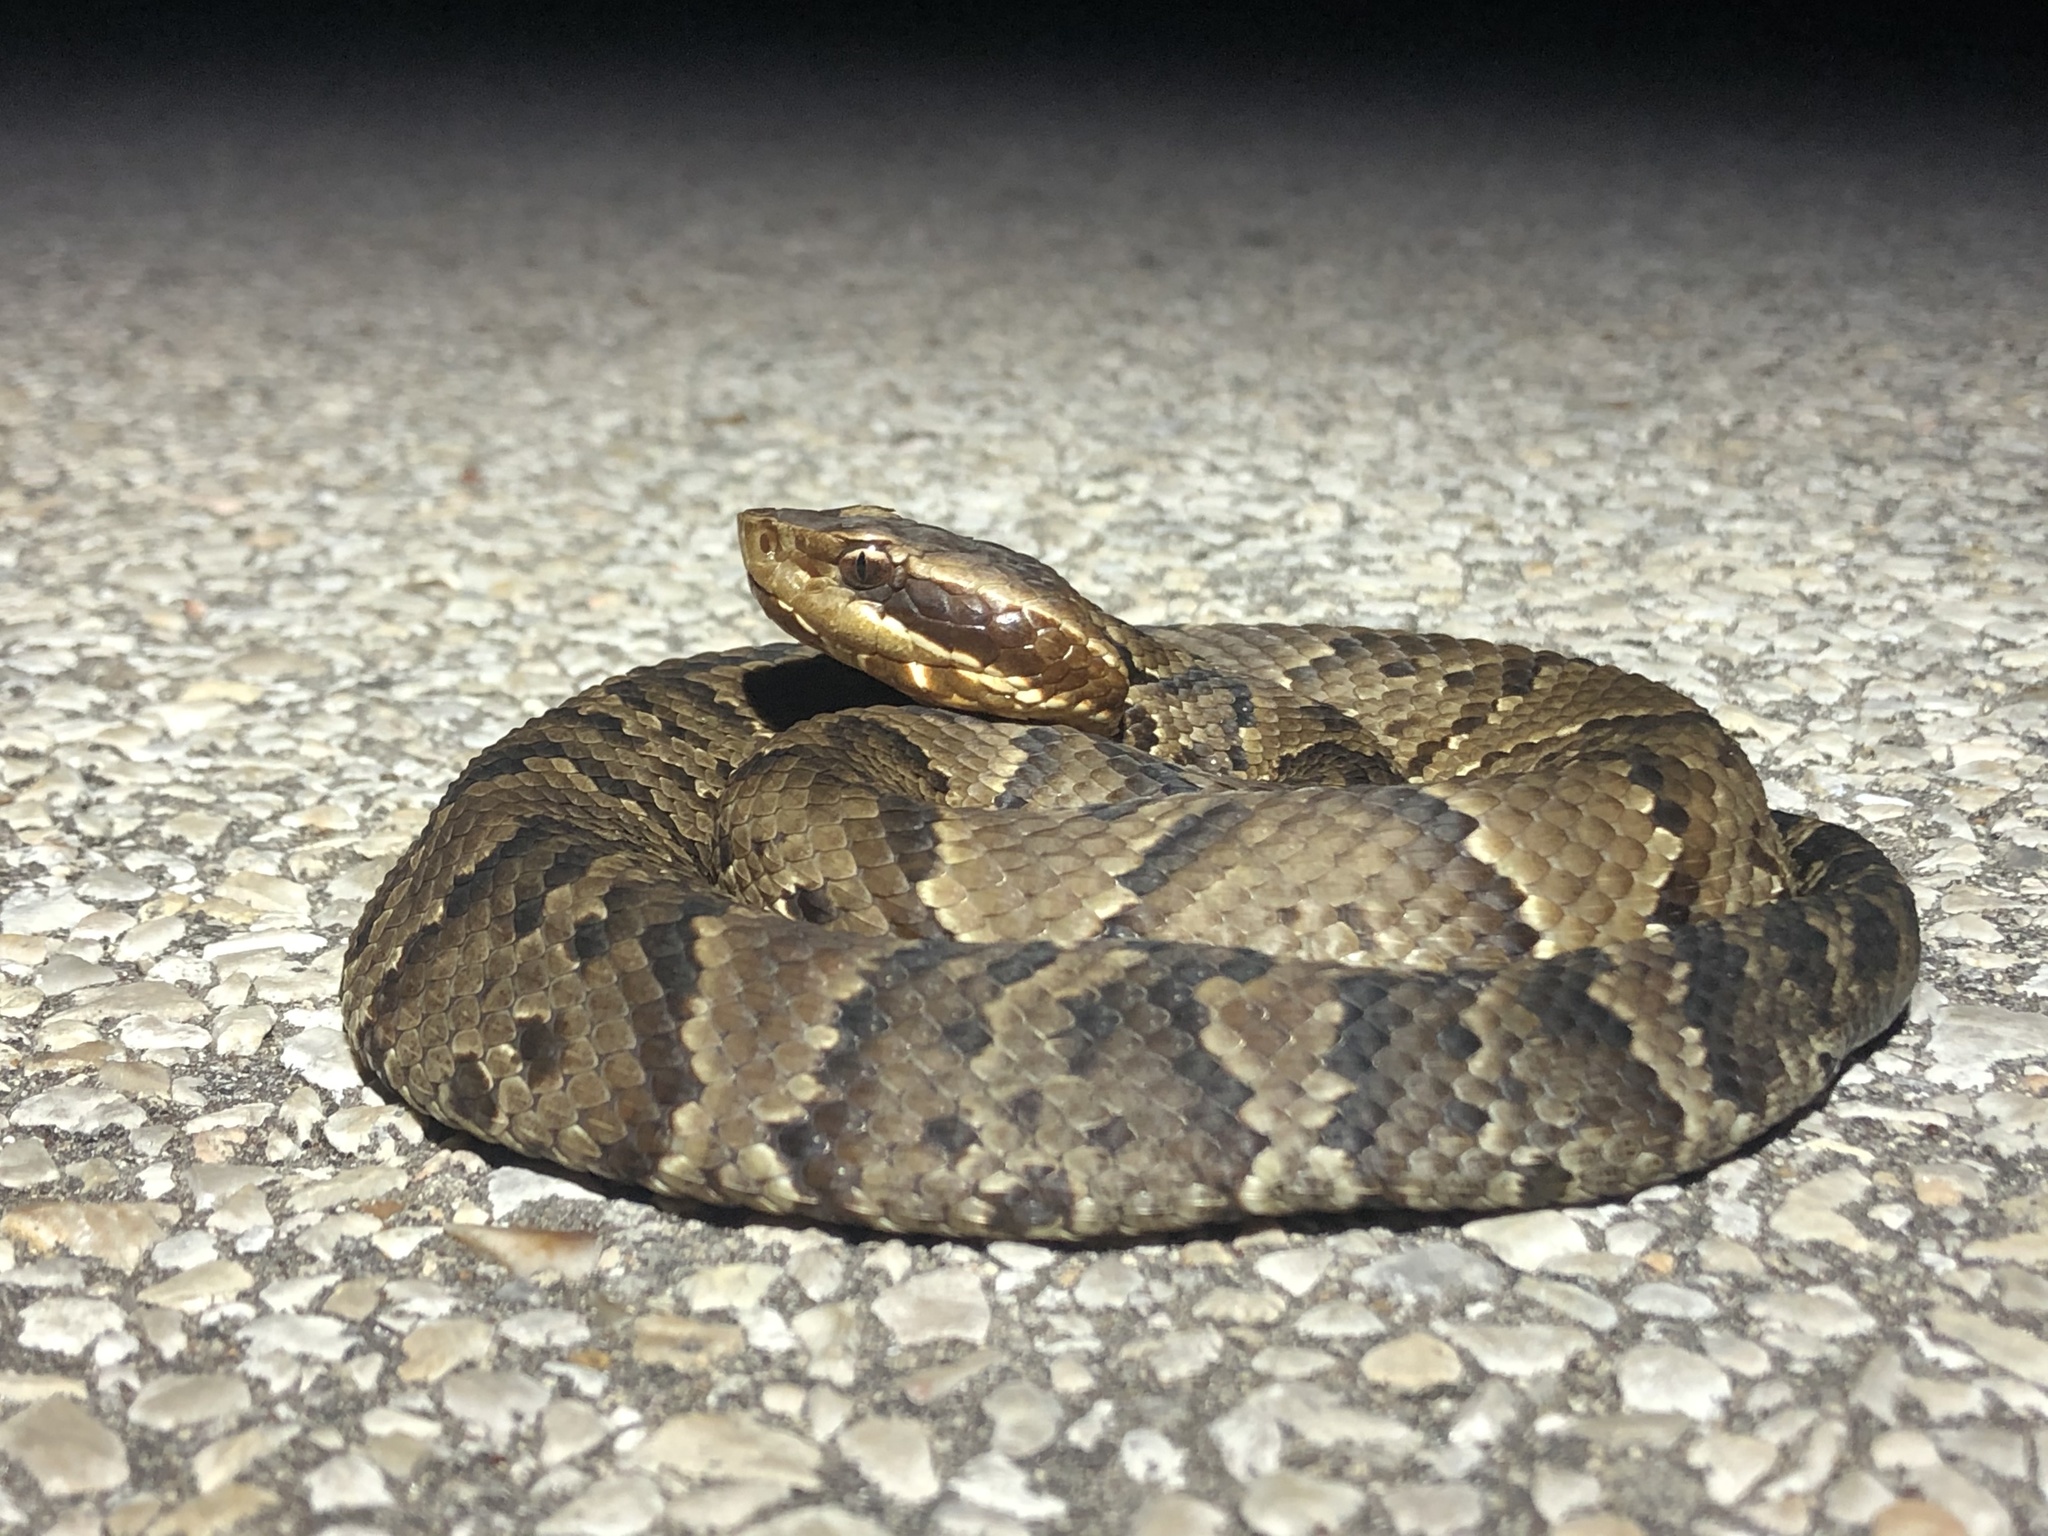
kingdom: Animalia
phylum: Chordata
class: Squamata
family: Viperidae
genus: Agkistrodon
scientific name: Agkistrodon piscivorus
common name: Cottonmouth
